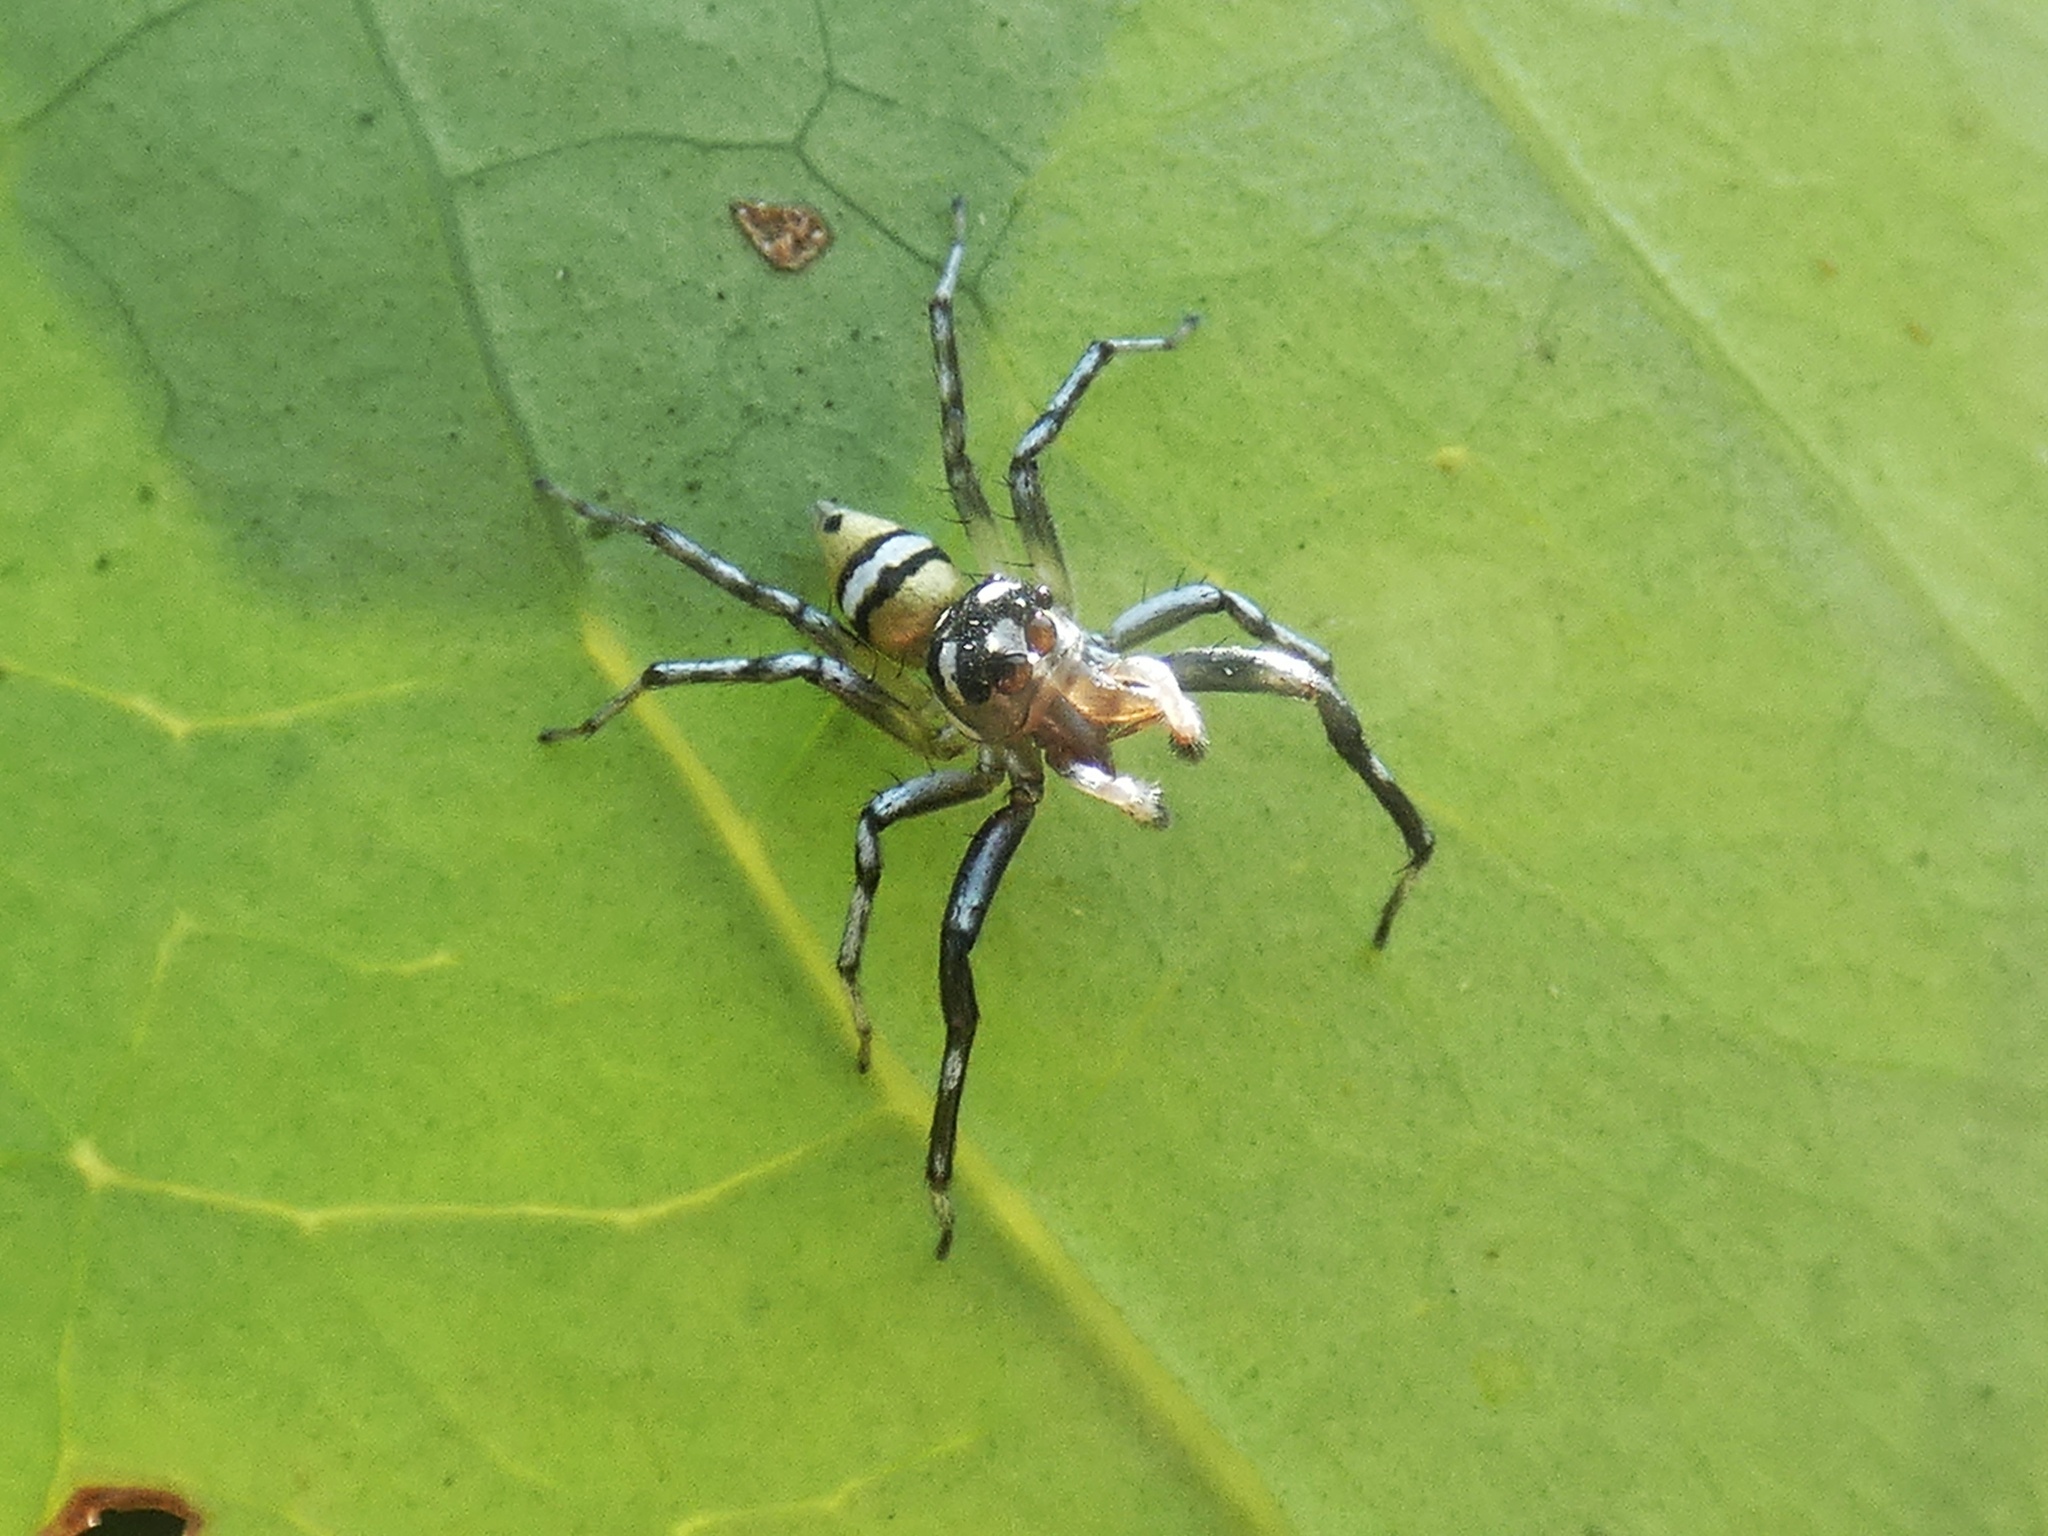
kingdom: Animalia
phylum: Arthropoda
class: Arachnida
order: Araneae
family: Salticidae
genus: Phintella
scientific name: Phintella piatensis
